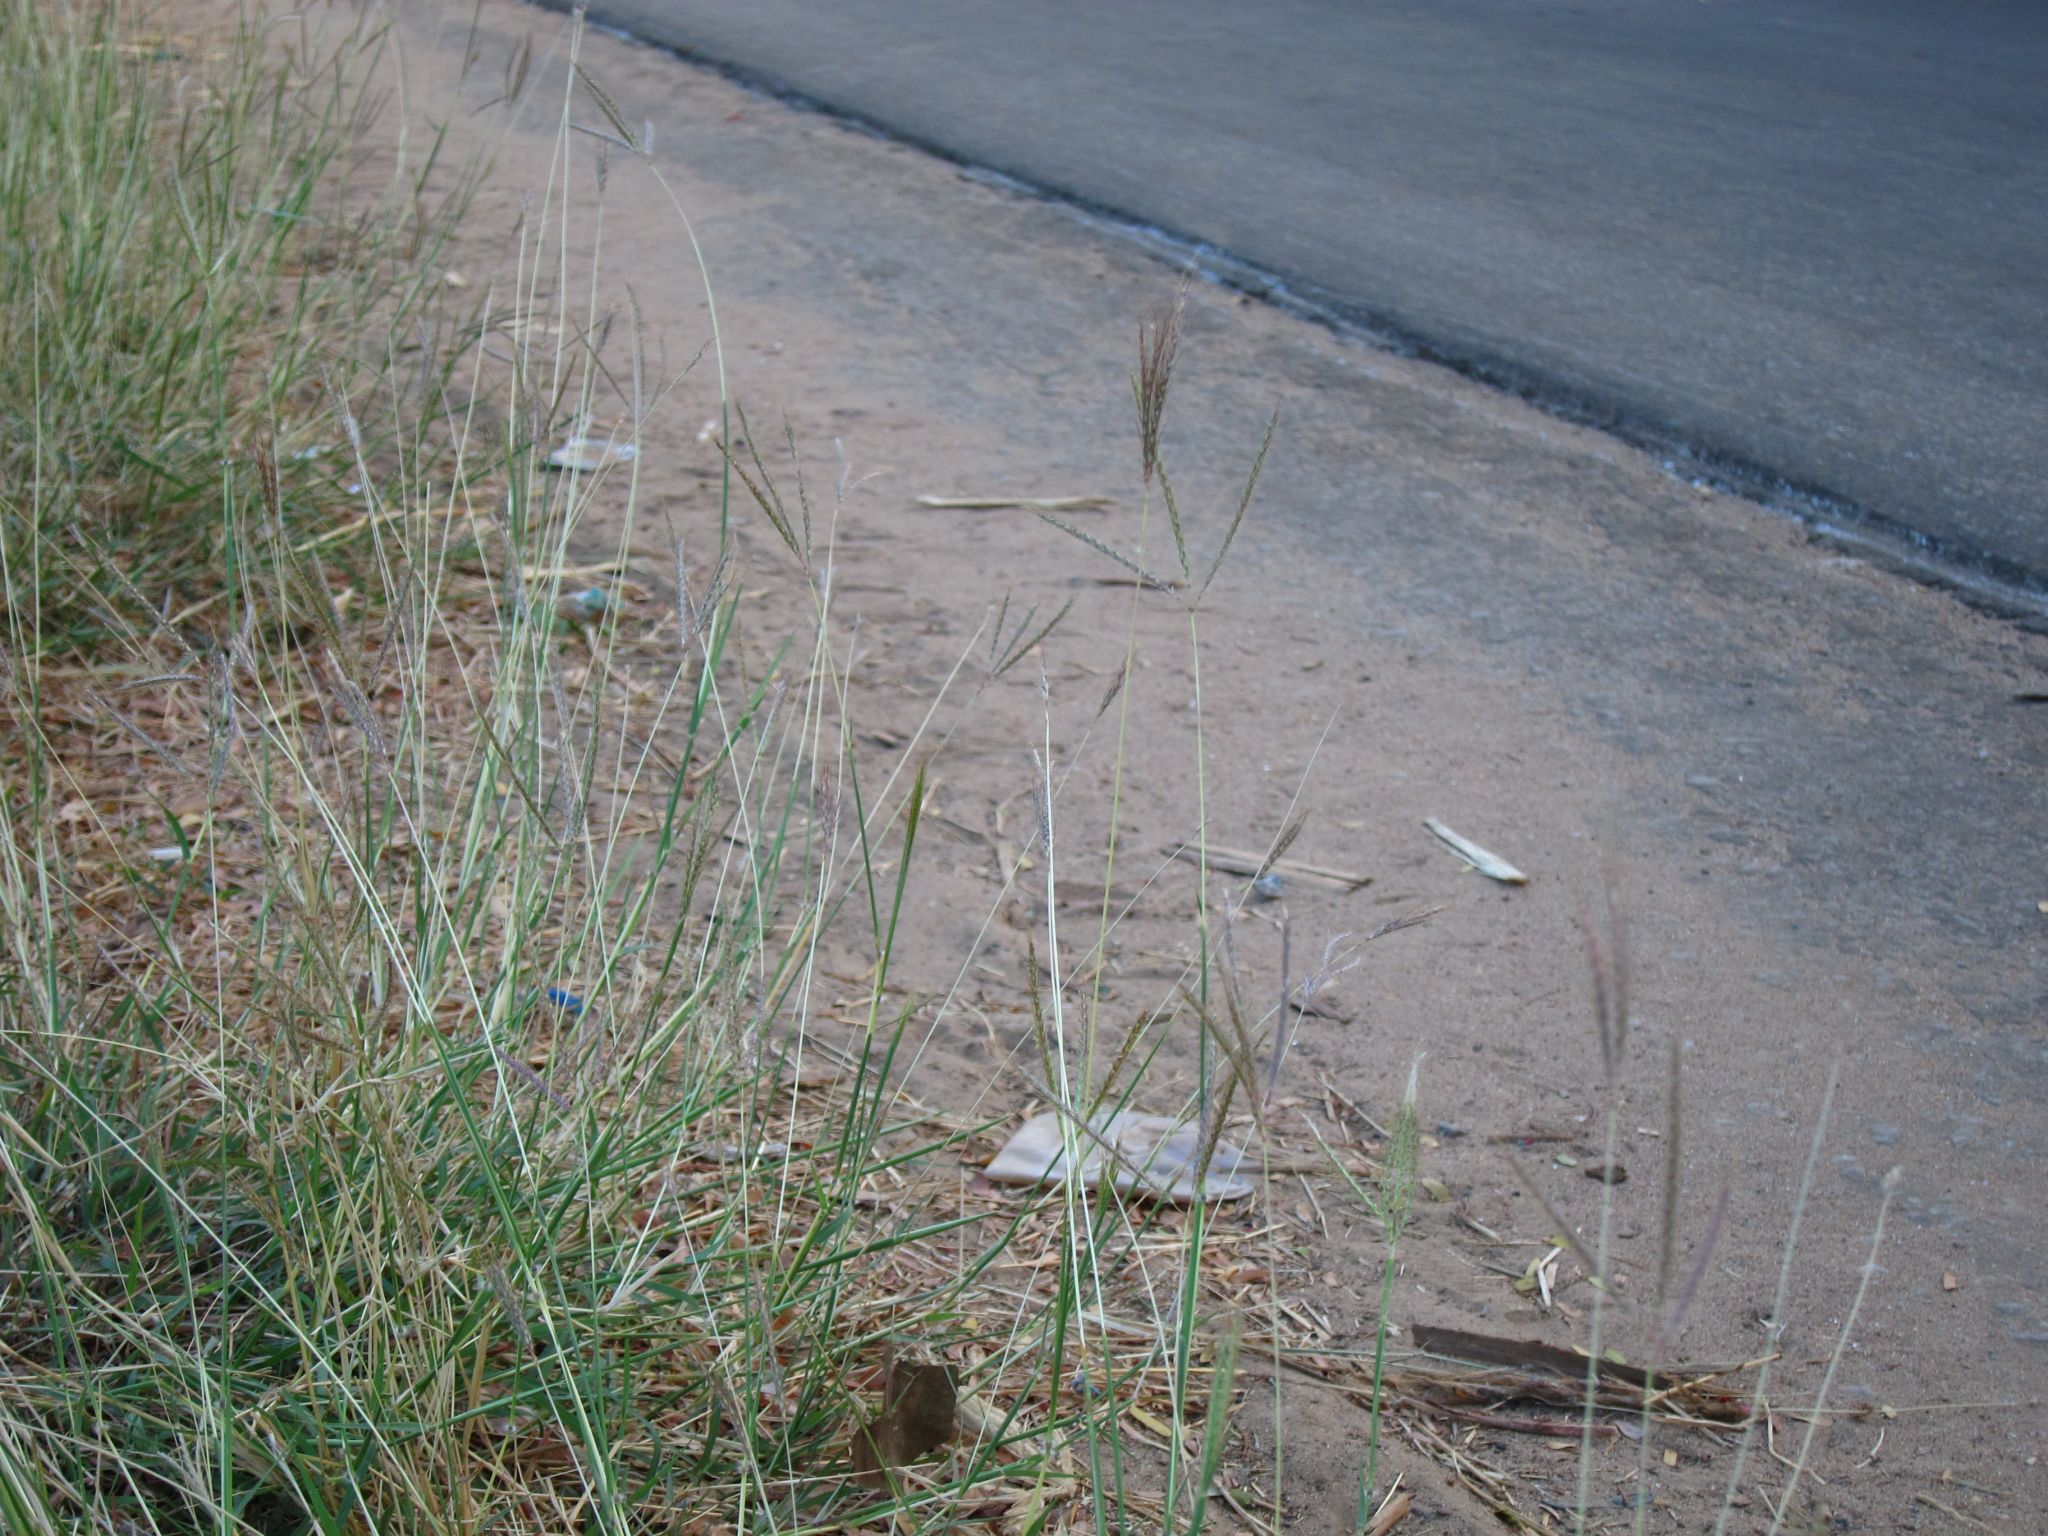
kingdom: Plantae
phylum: Tracheophyta
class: Liliopsida
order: Poales
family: Poaceae
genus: Dichanthium
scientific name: Dichanthium annulatum
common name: Kleberg's bluestem
